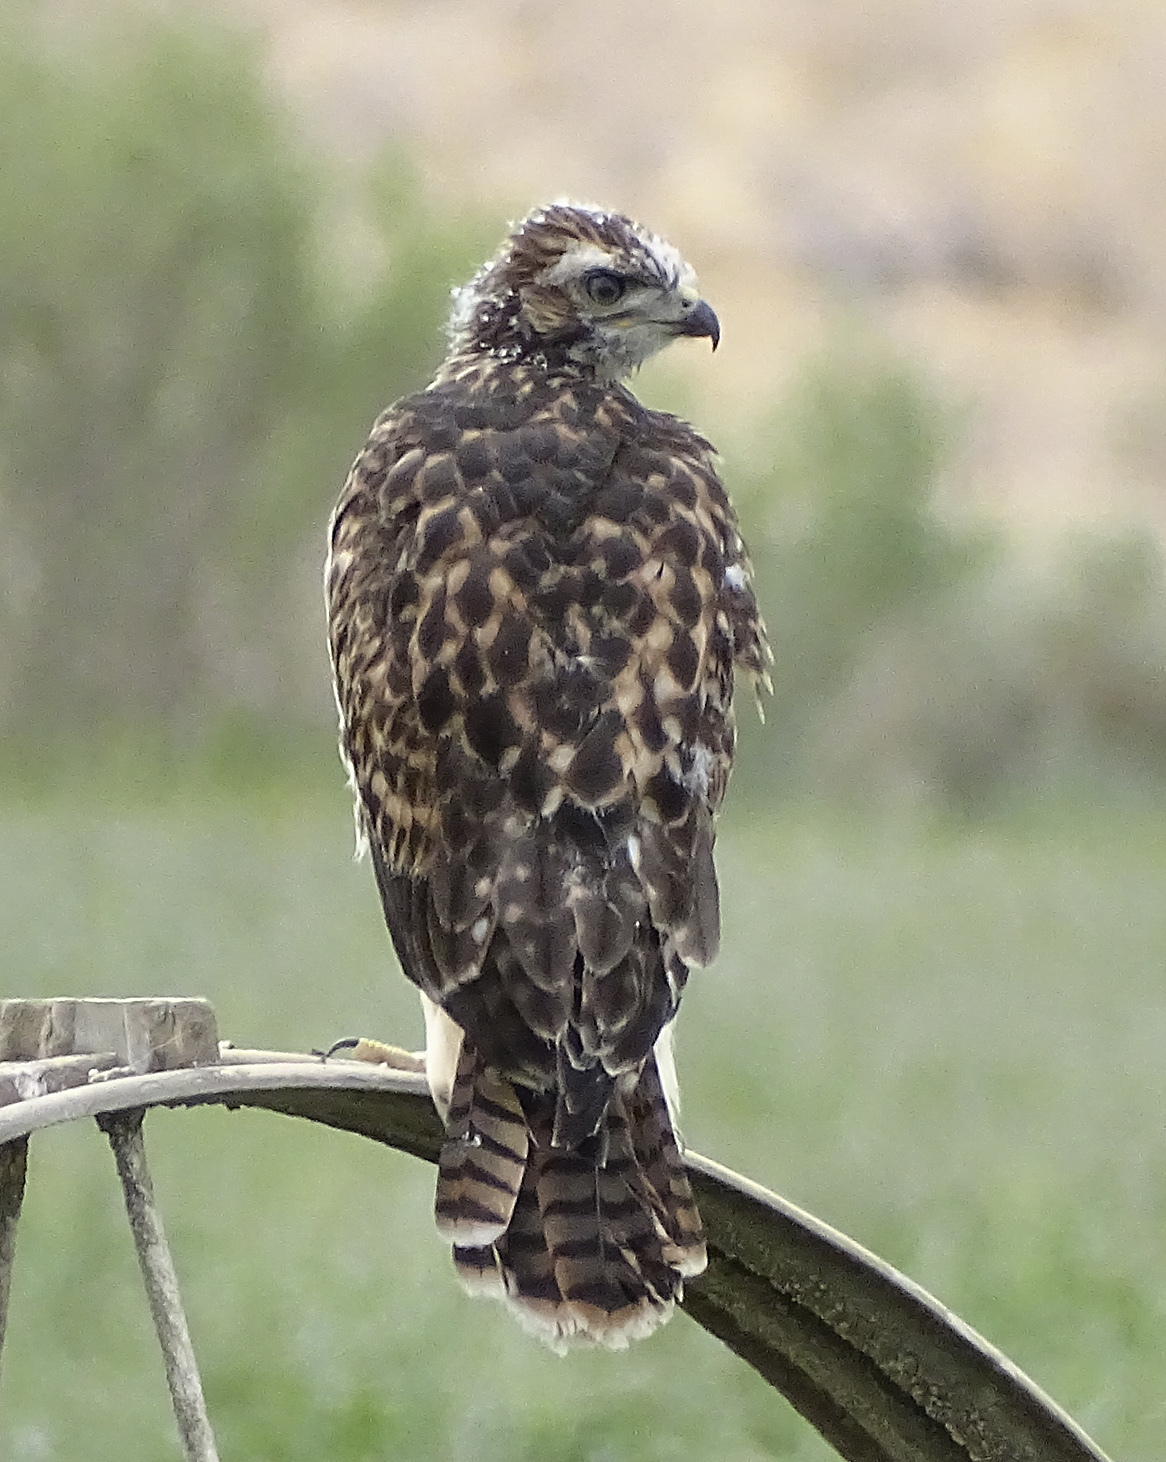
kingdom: Animalia
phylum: Chordata
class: Aves
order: Accipitriformes
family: Accipitridae
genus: Buteo
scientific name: Buteo jamaicensis
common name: Red-tailed hawk
